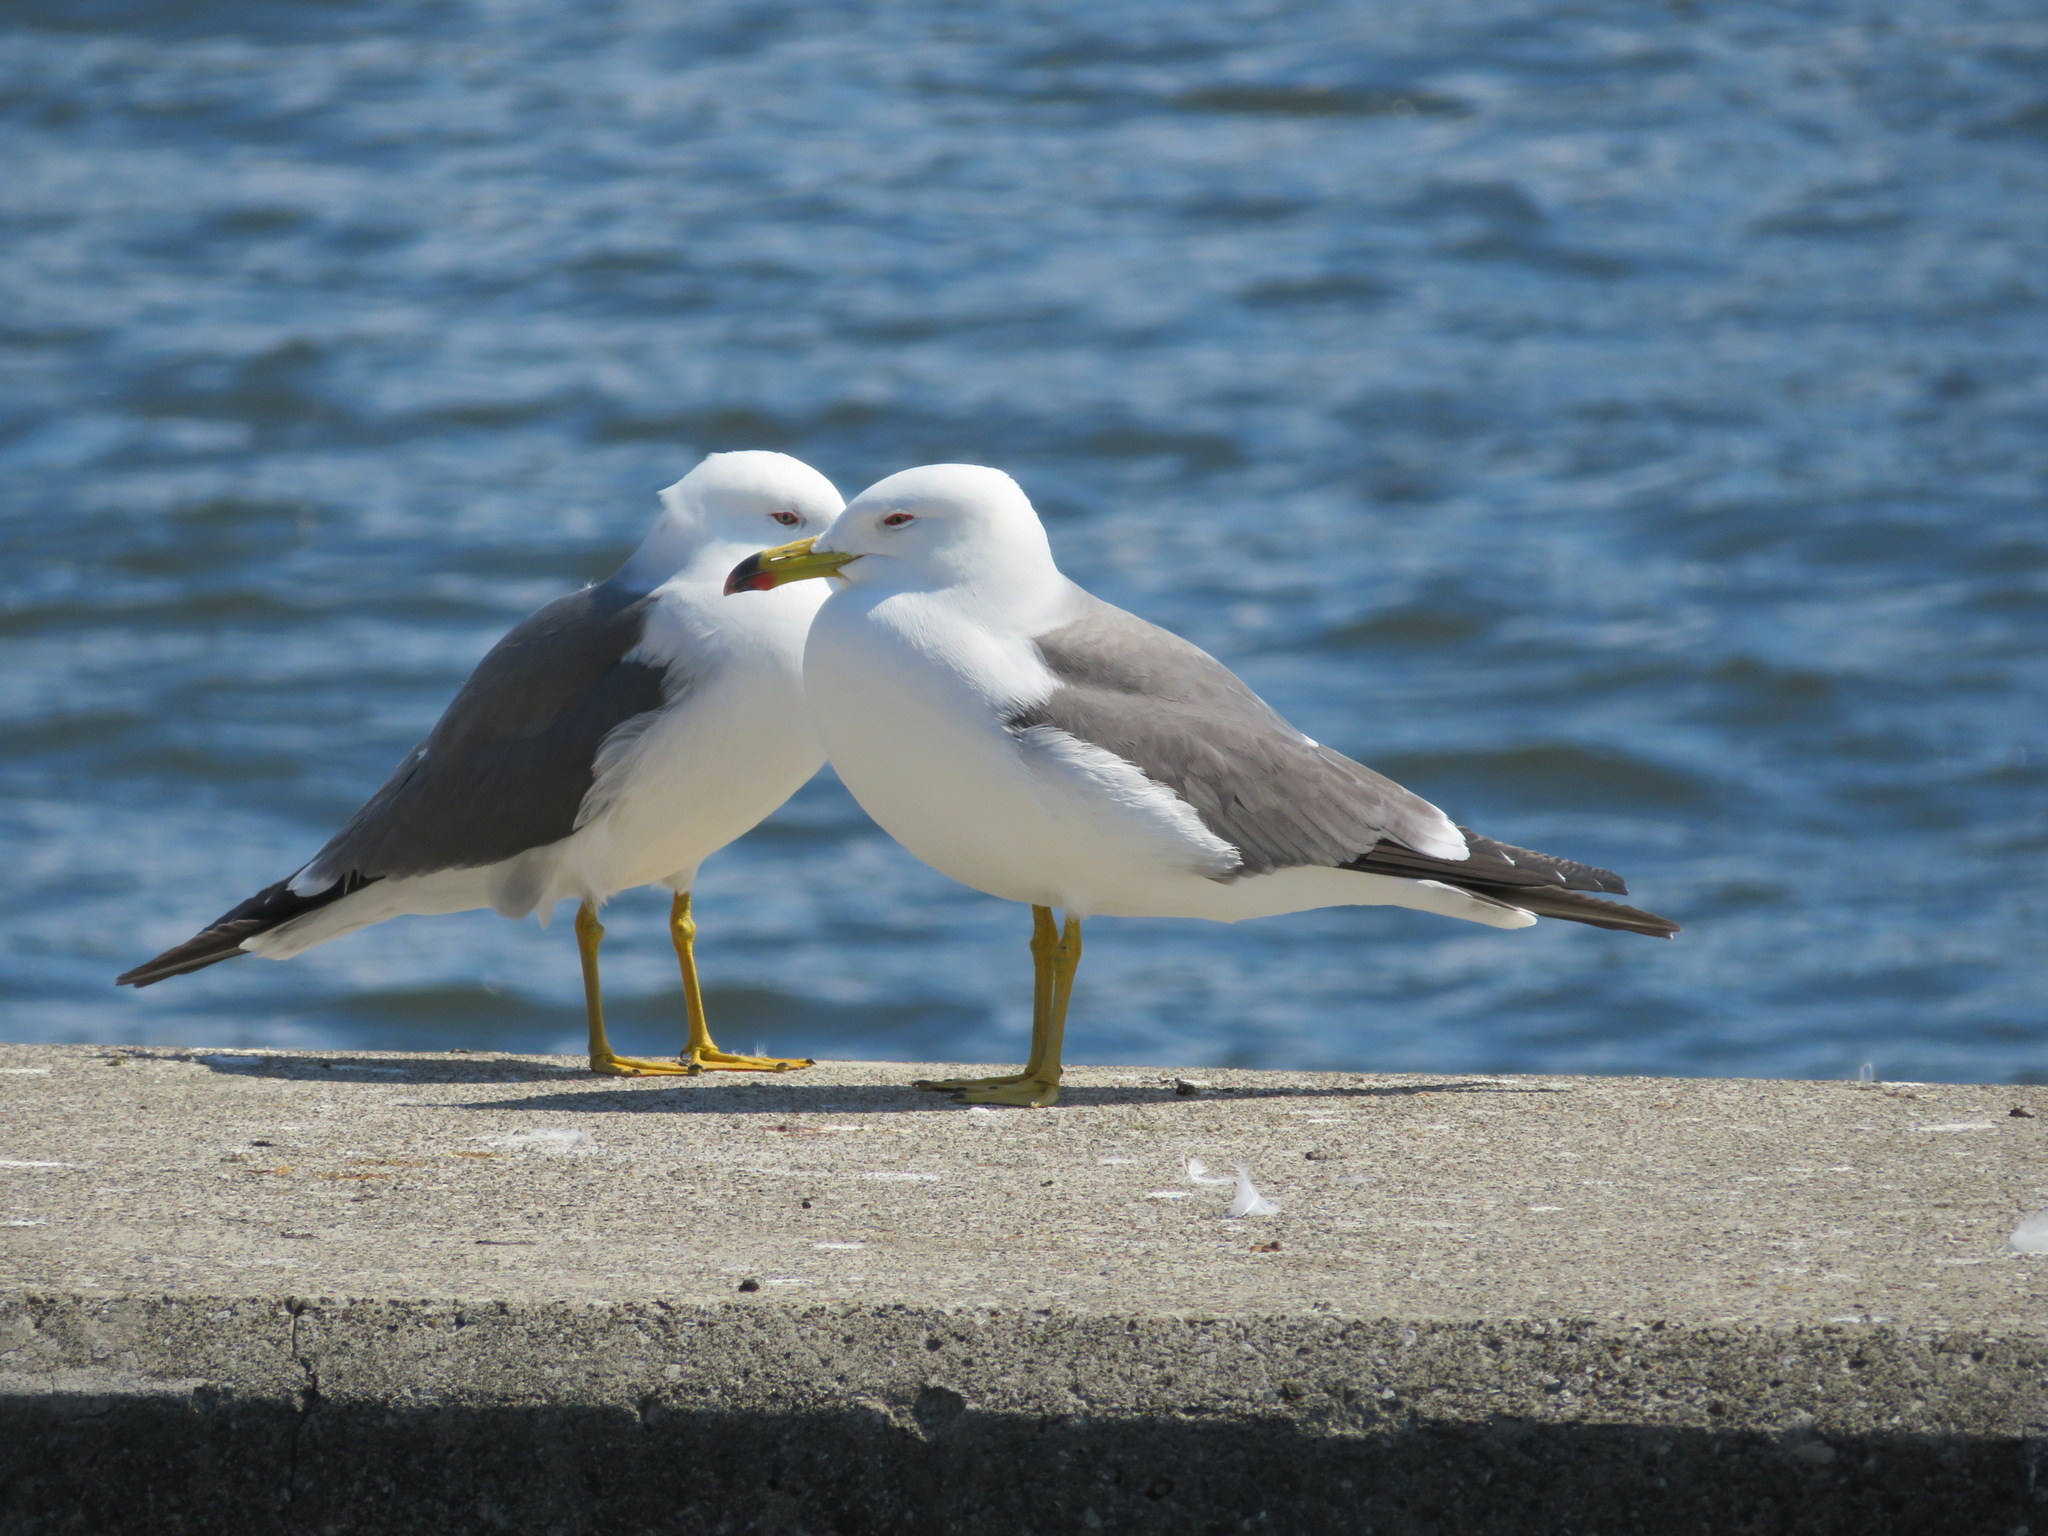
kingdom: Animalia
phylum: Chordata
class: Aves
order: Charadriiformes
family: Laridae
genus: Larus
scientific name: Larus crassirostris
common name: Black-tailed gull
